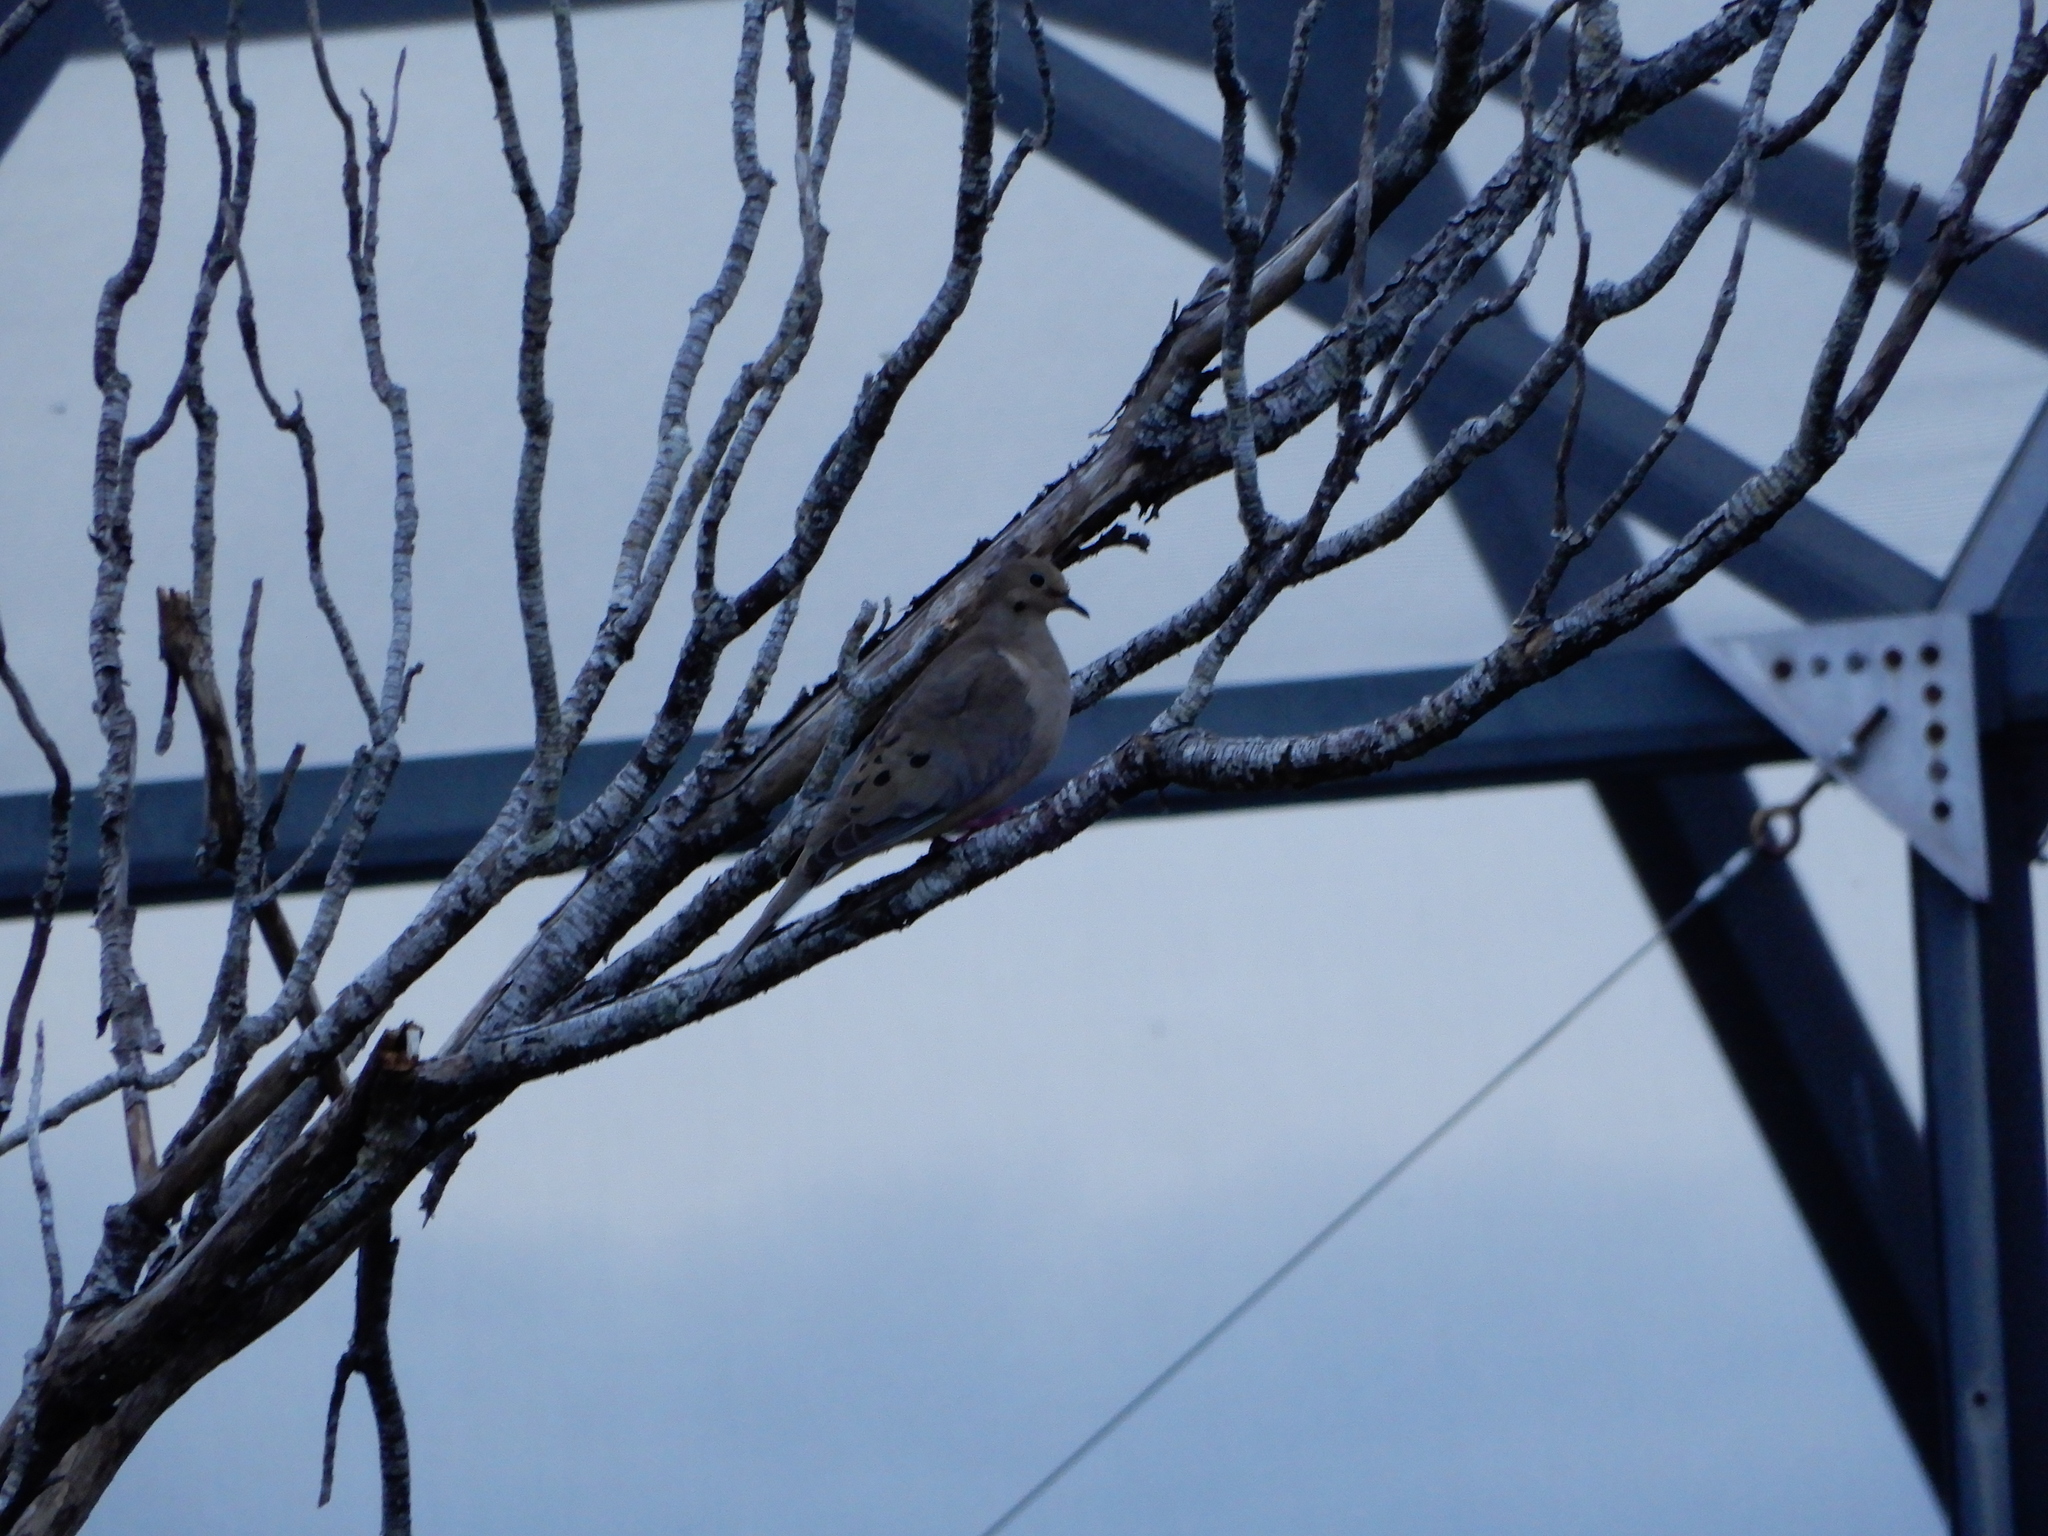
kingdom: Animalia
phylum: Chordata
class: Aves
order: Columbiformes
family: Columbidae
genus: Zenaida
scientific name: Zenaida macroura
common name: Mourning dove
